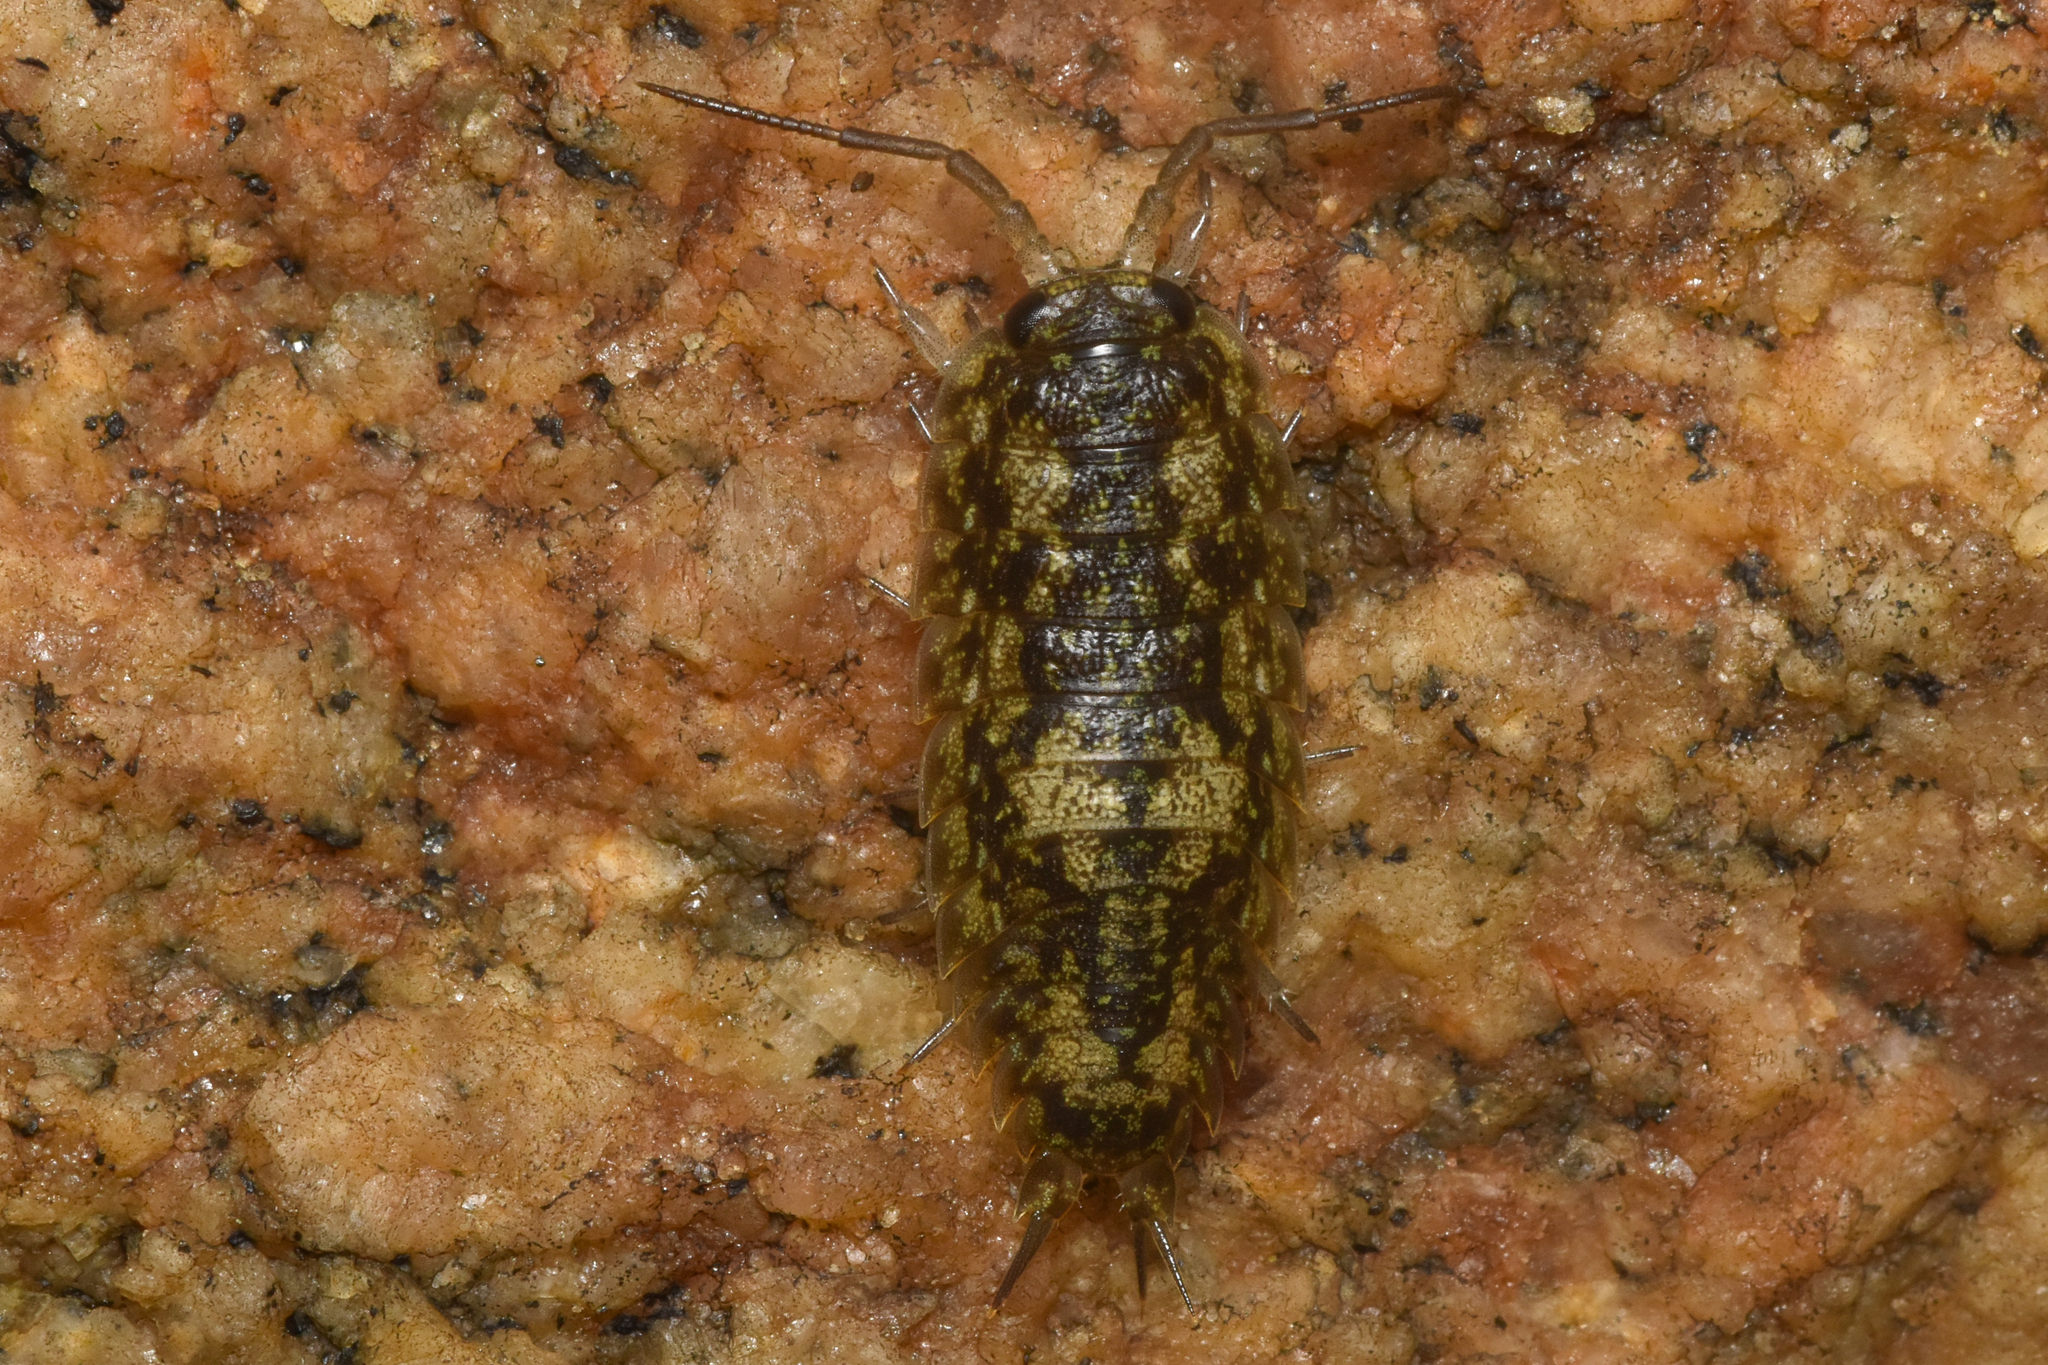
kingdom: Animalia
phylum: Arthropoda
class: Malacostraca
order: Isopoda
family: Ligiidae
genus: Ligia
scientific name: Ligia pallasii
